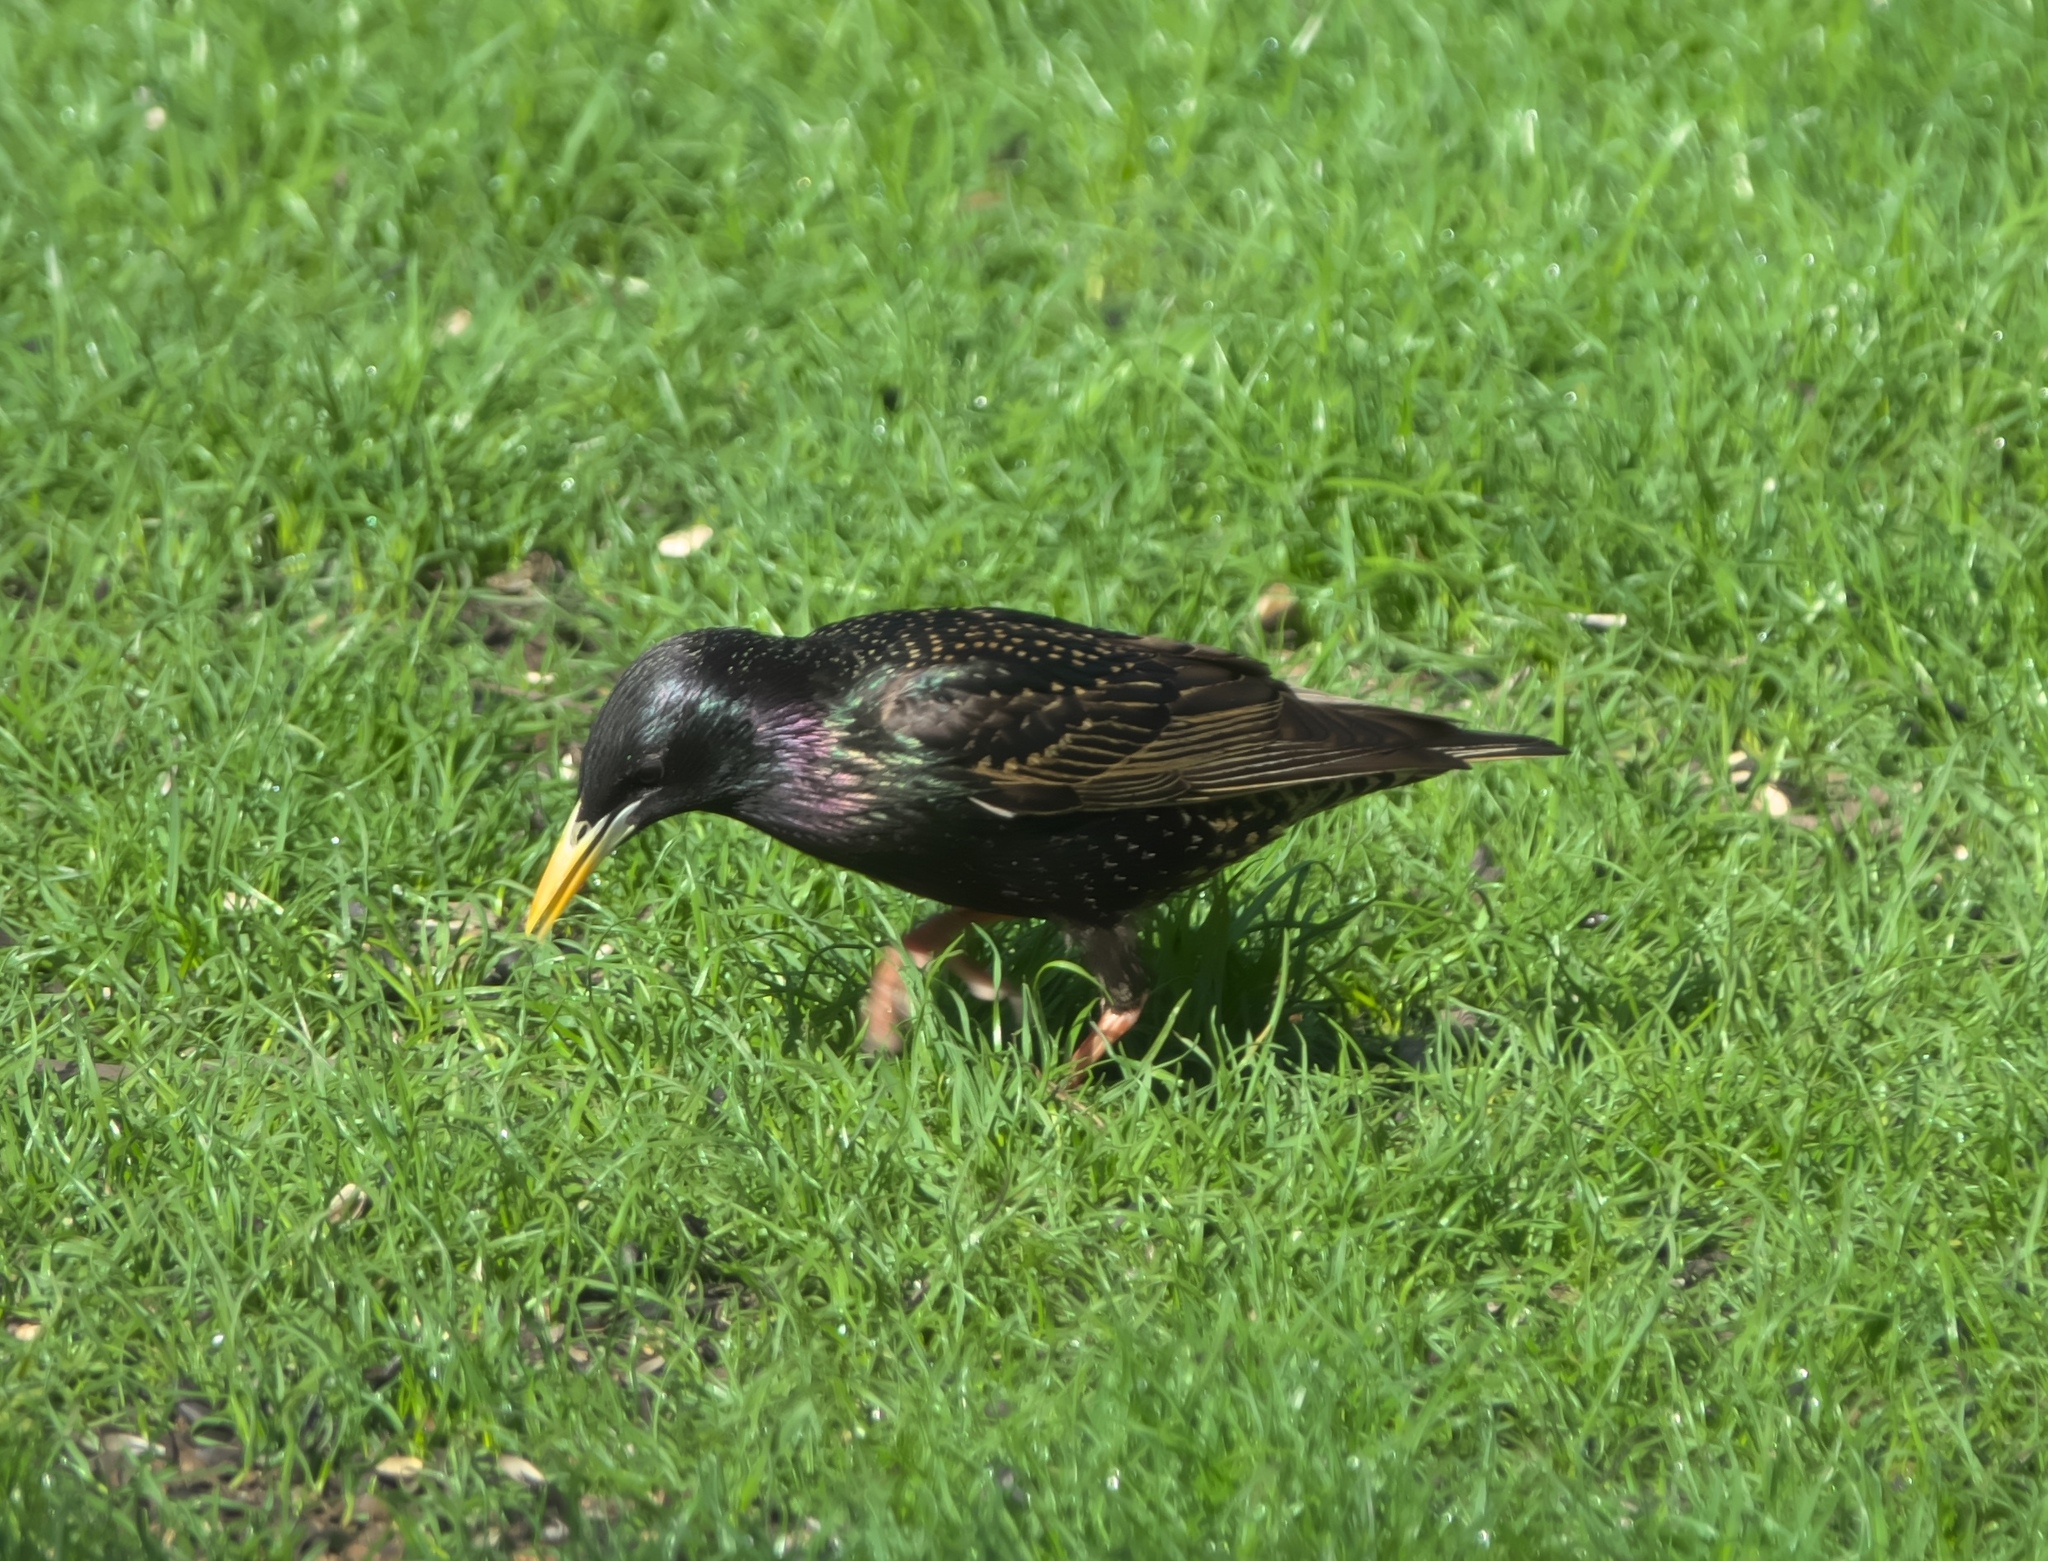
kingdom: Animalia
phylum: Chordata
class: Aves
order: Passeriformes
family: Sturnidae
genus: Sturnus
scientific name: Sturnus vulgaris
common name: Common starling
